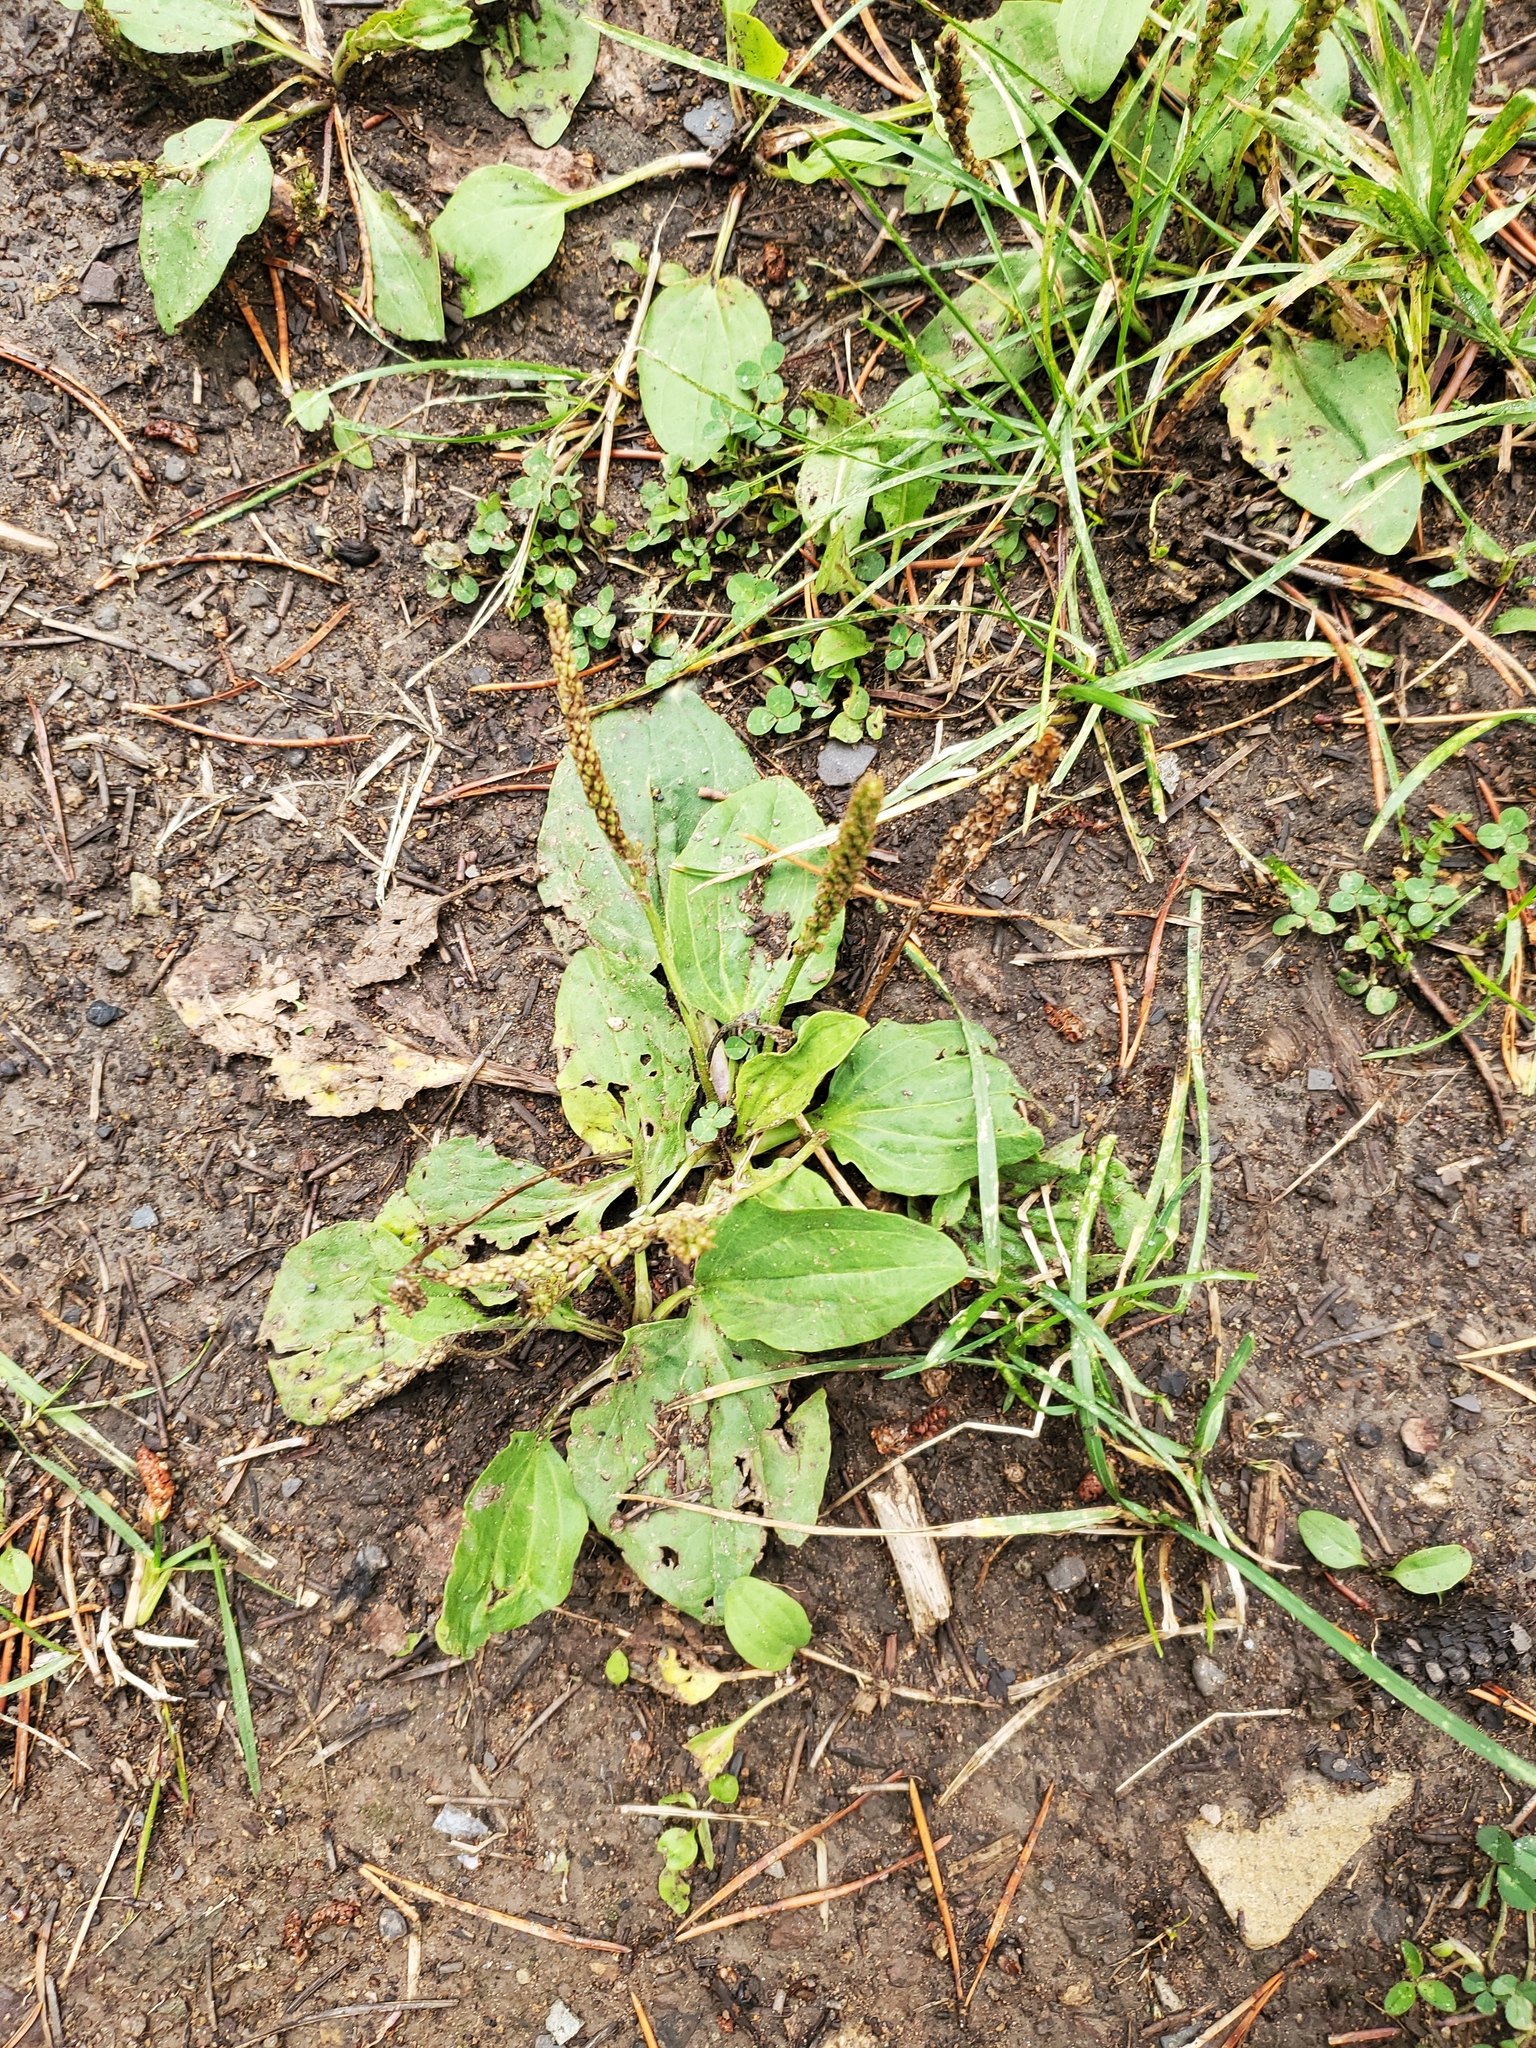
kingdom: Plantae
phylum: Tracheophyta
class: Magnoliopsida
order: Lamiales
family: Plantaginaceae
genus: Plantago
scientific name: Plantago major
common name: Common plantain
